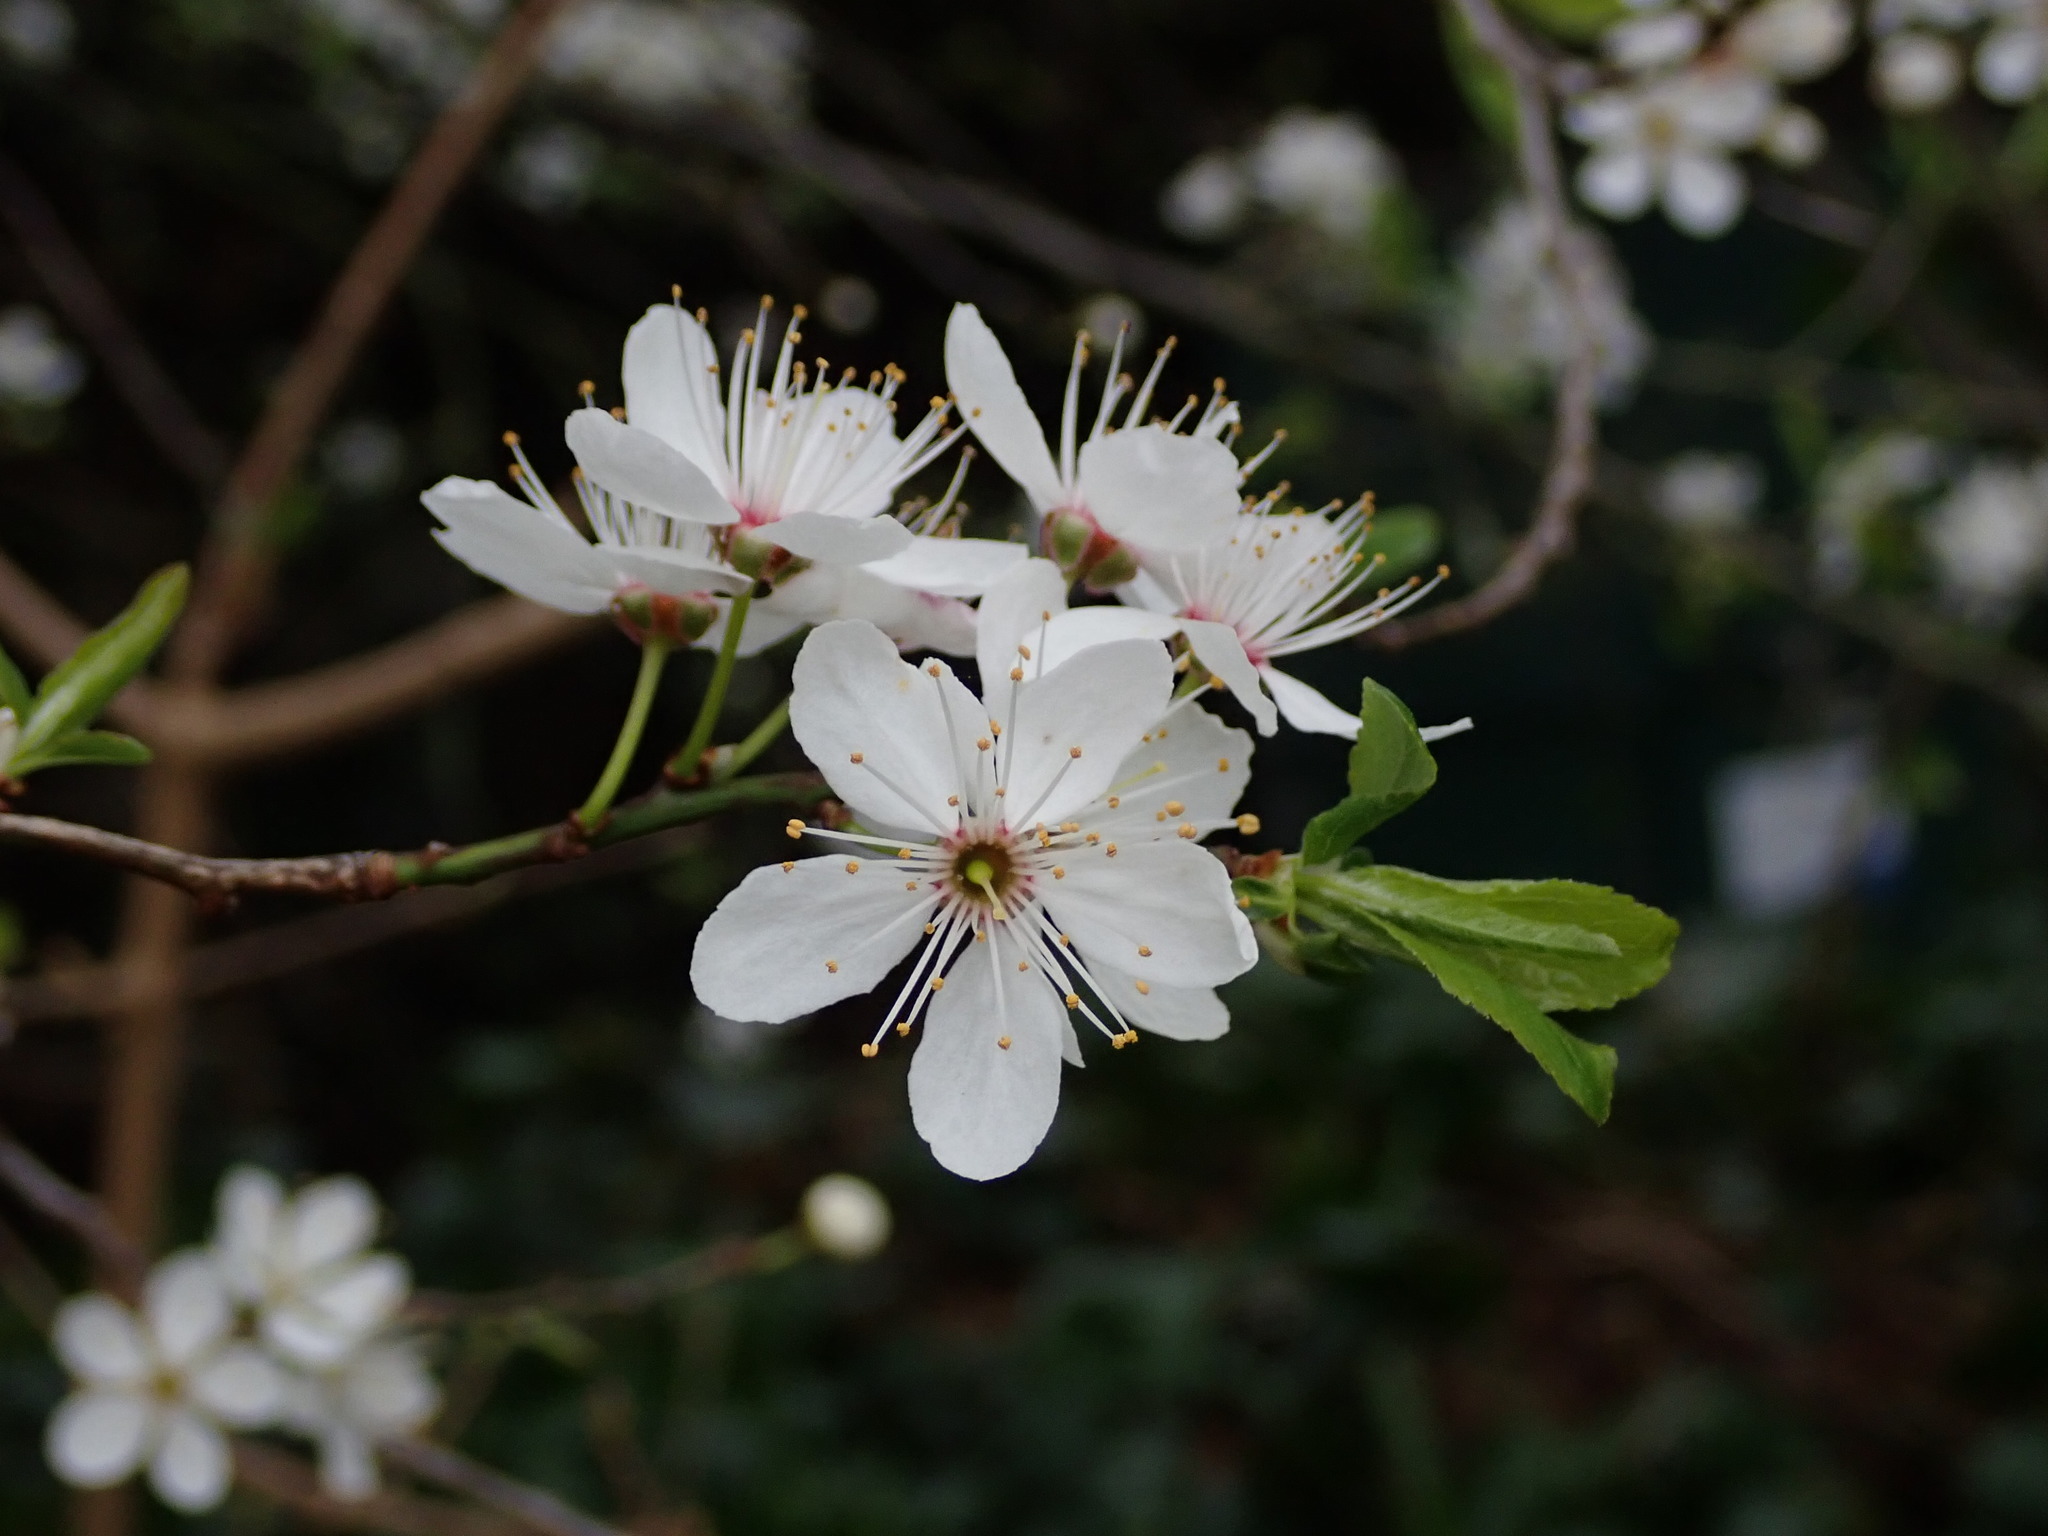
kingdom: Plantae
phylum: Tracheophyta
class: Magnoliopsida
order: Rosales
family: Rosaceae
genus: Prunus
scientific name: Prunus cerasifera
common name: Cherry plum
